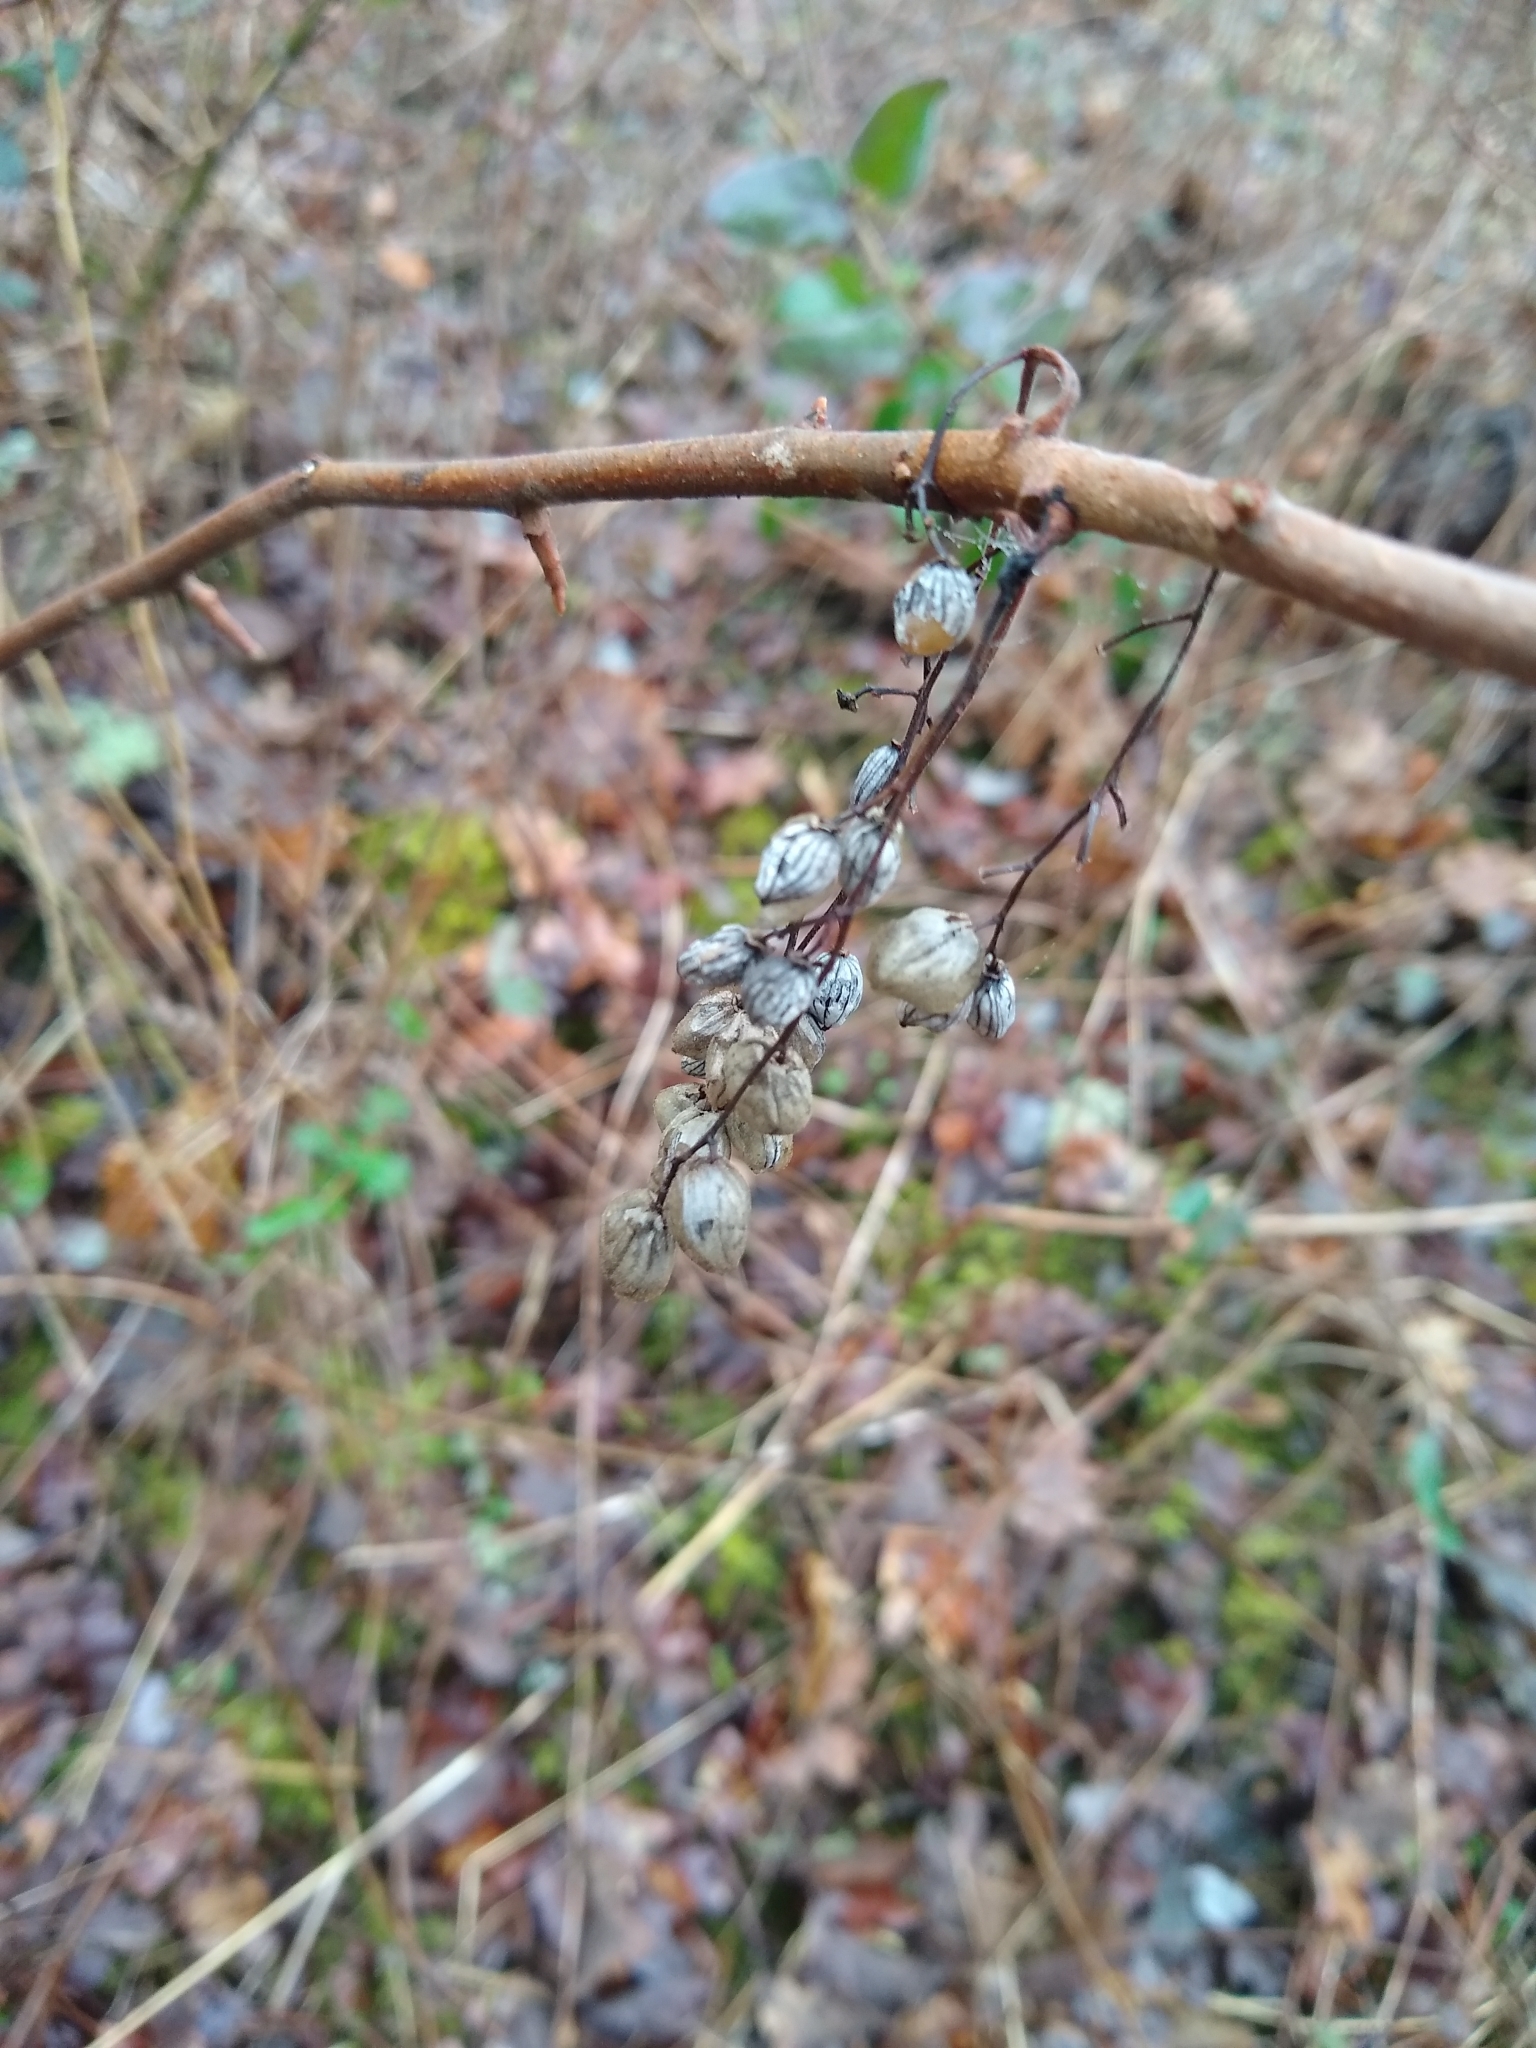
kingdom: Plantae
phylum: Tracheophyta
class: Magnoliopsida
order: Sapindales
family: Anacardiaceae
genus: Toxicodendron
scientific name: Toxicodendron diversilobum
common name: Pacific poison-oak
